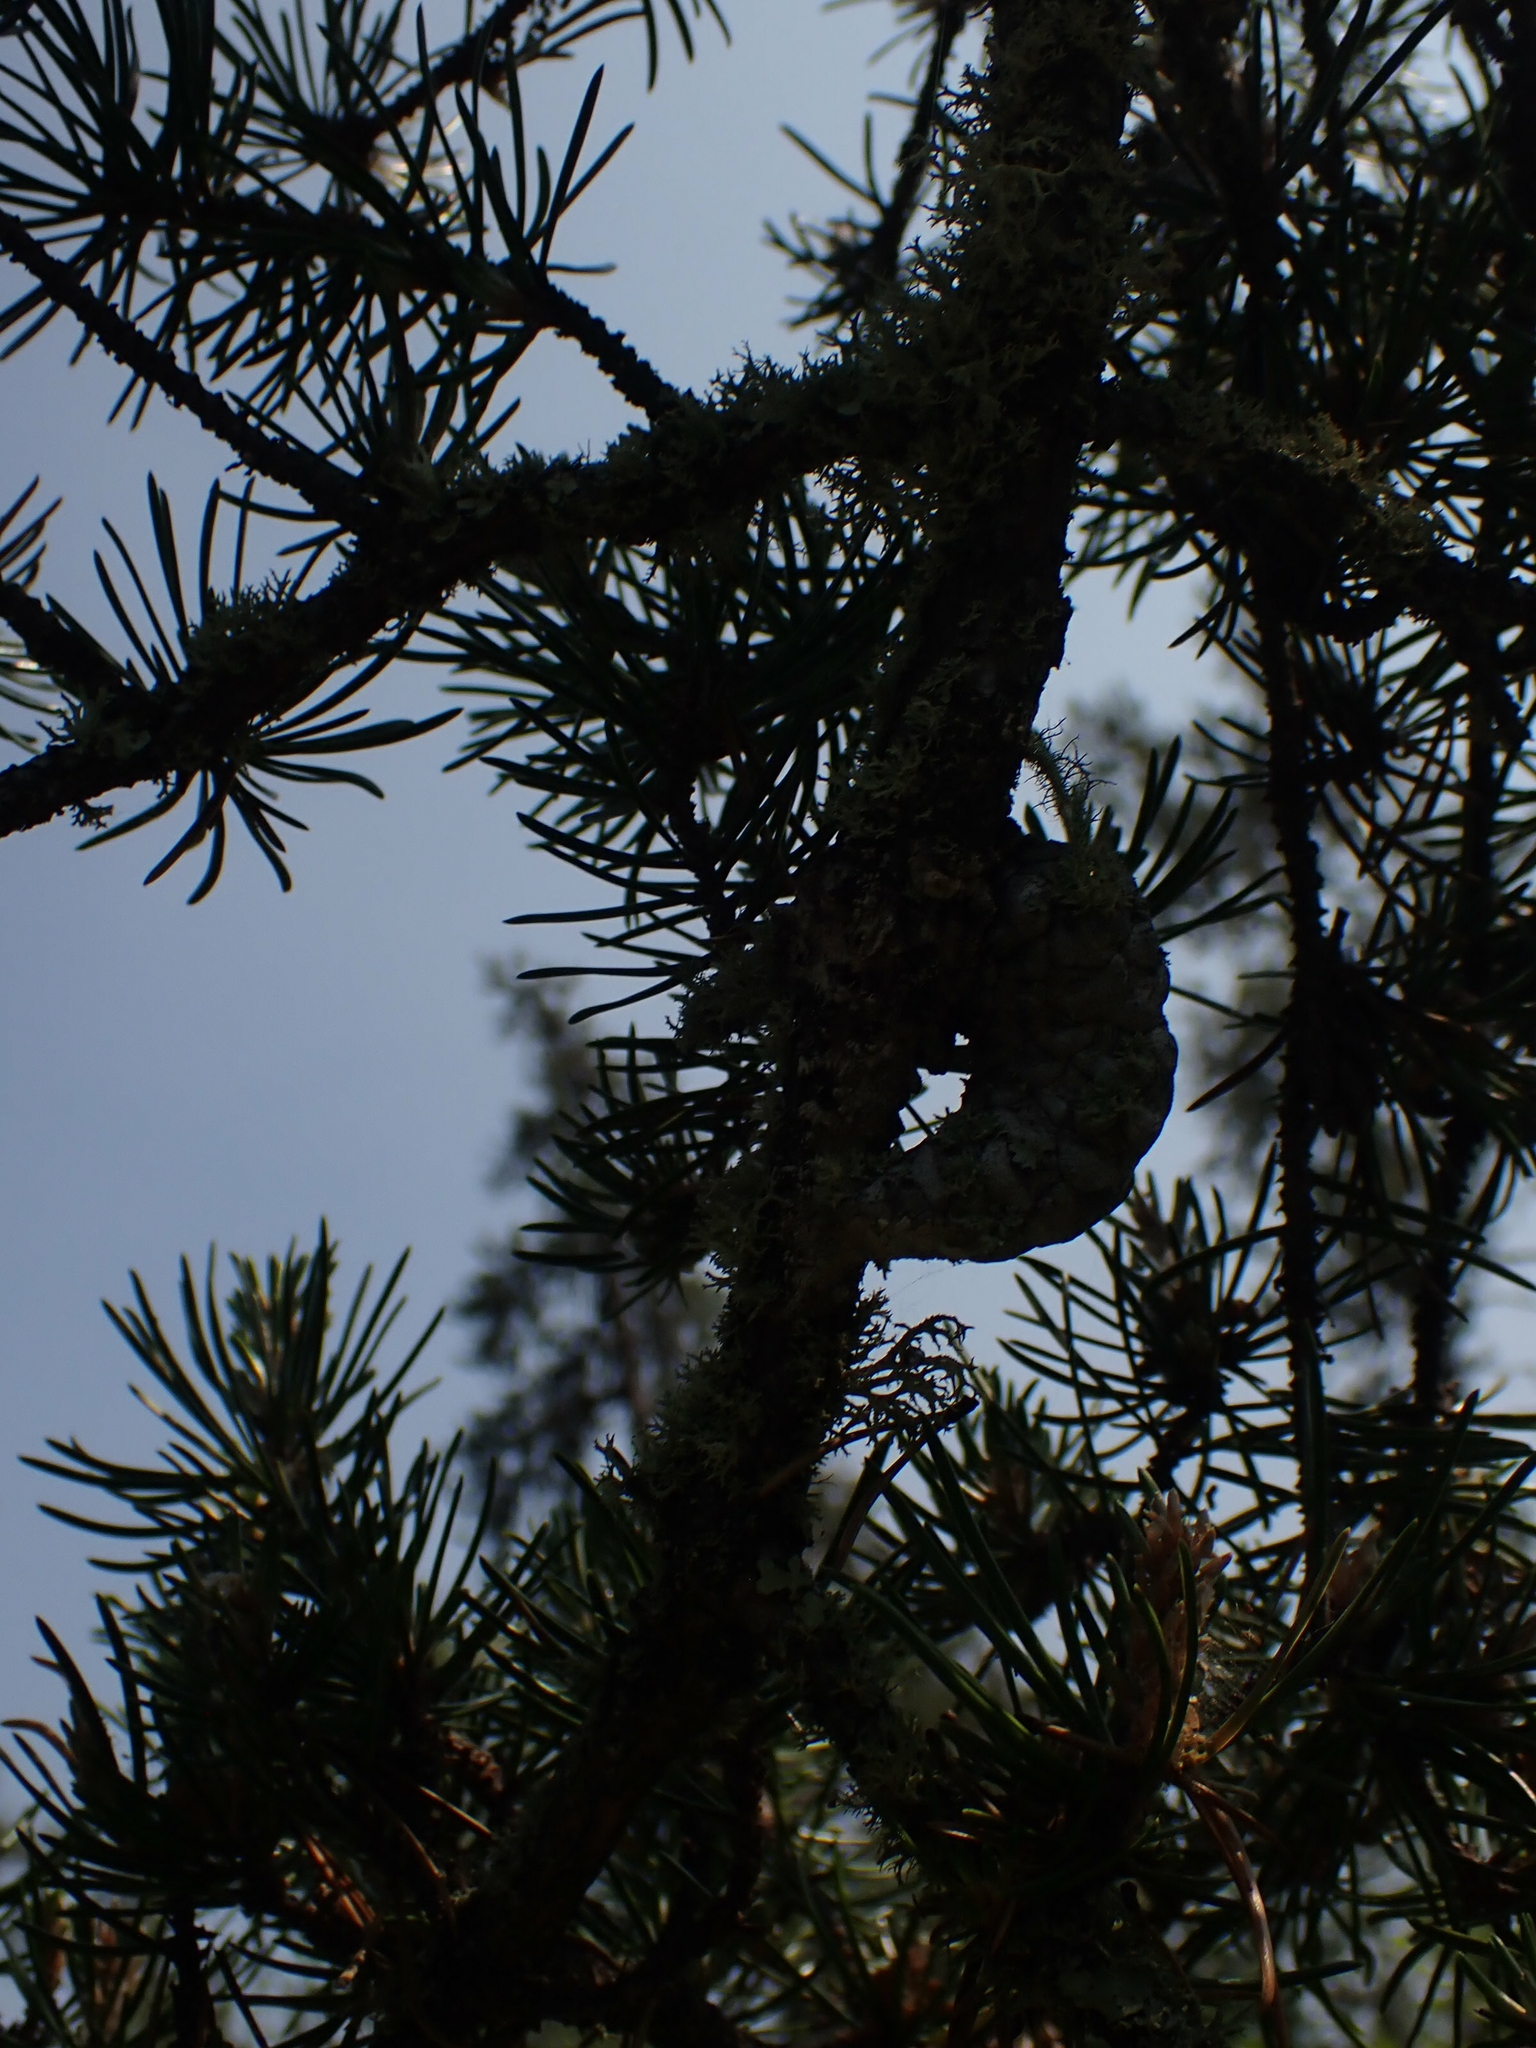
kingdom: Plantae
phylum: Tracheophyta
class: Pinopsida
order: Pinales
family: Pinaceae
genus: Pinus
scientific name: Pinus banksiana
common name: Jack pine
